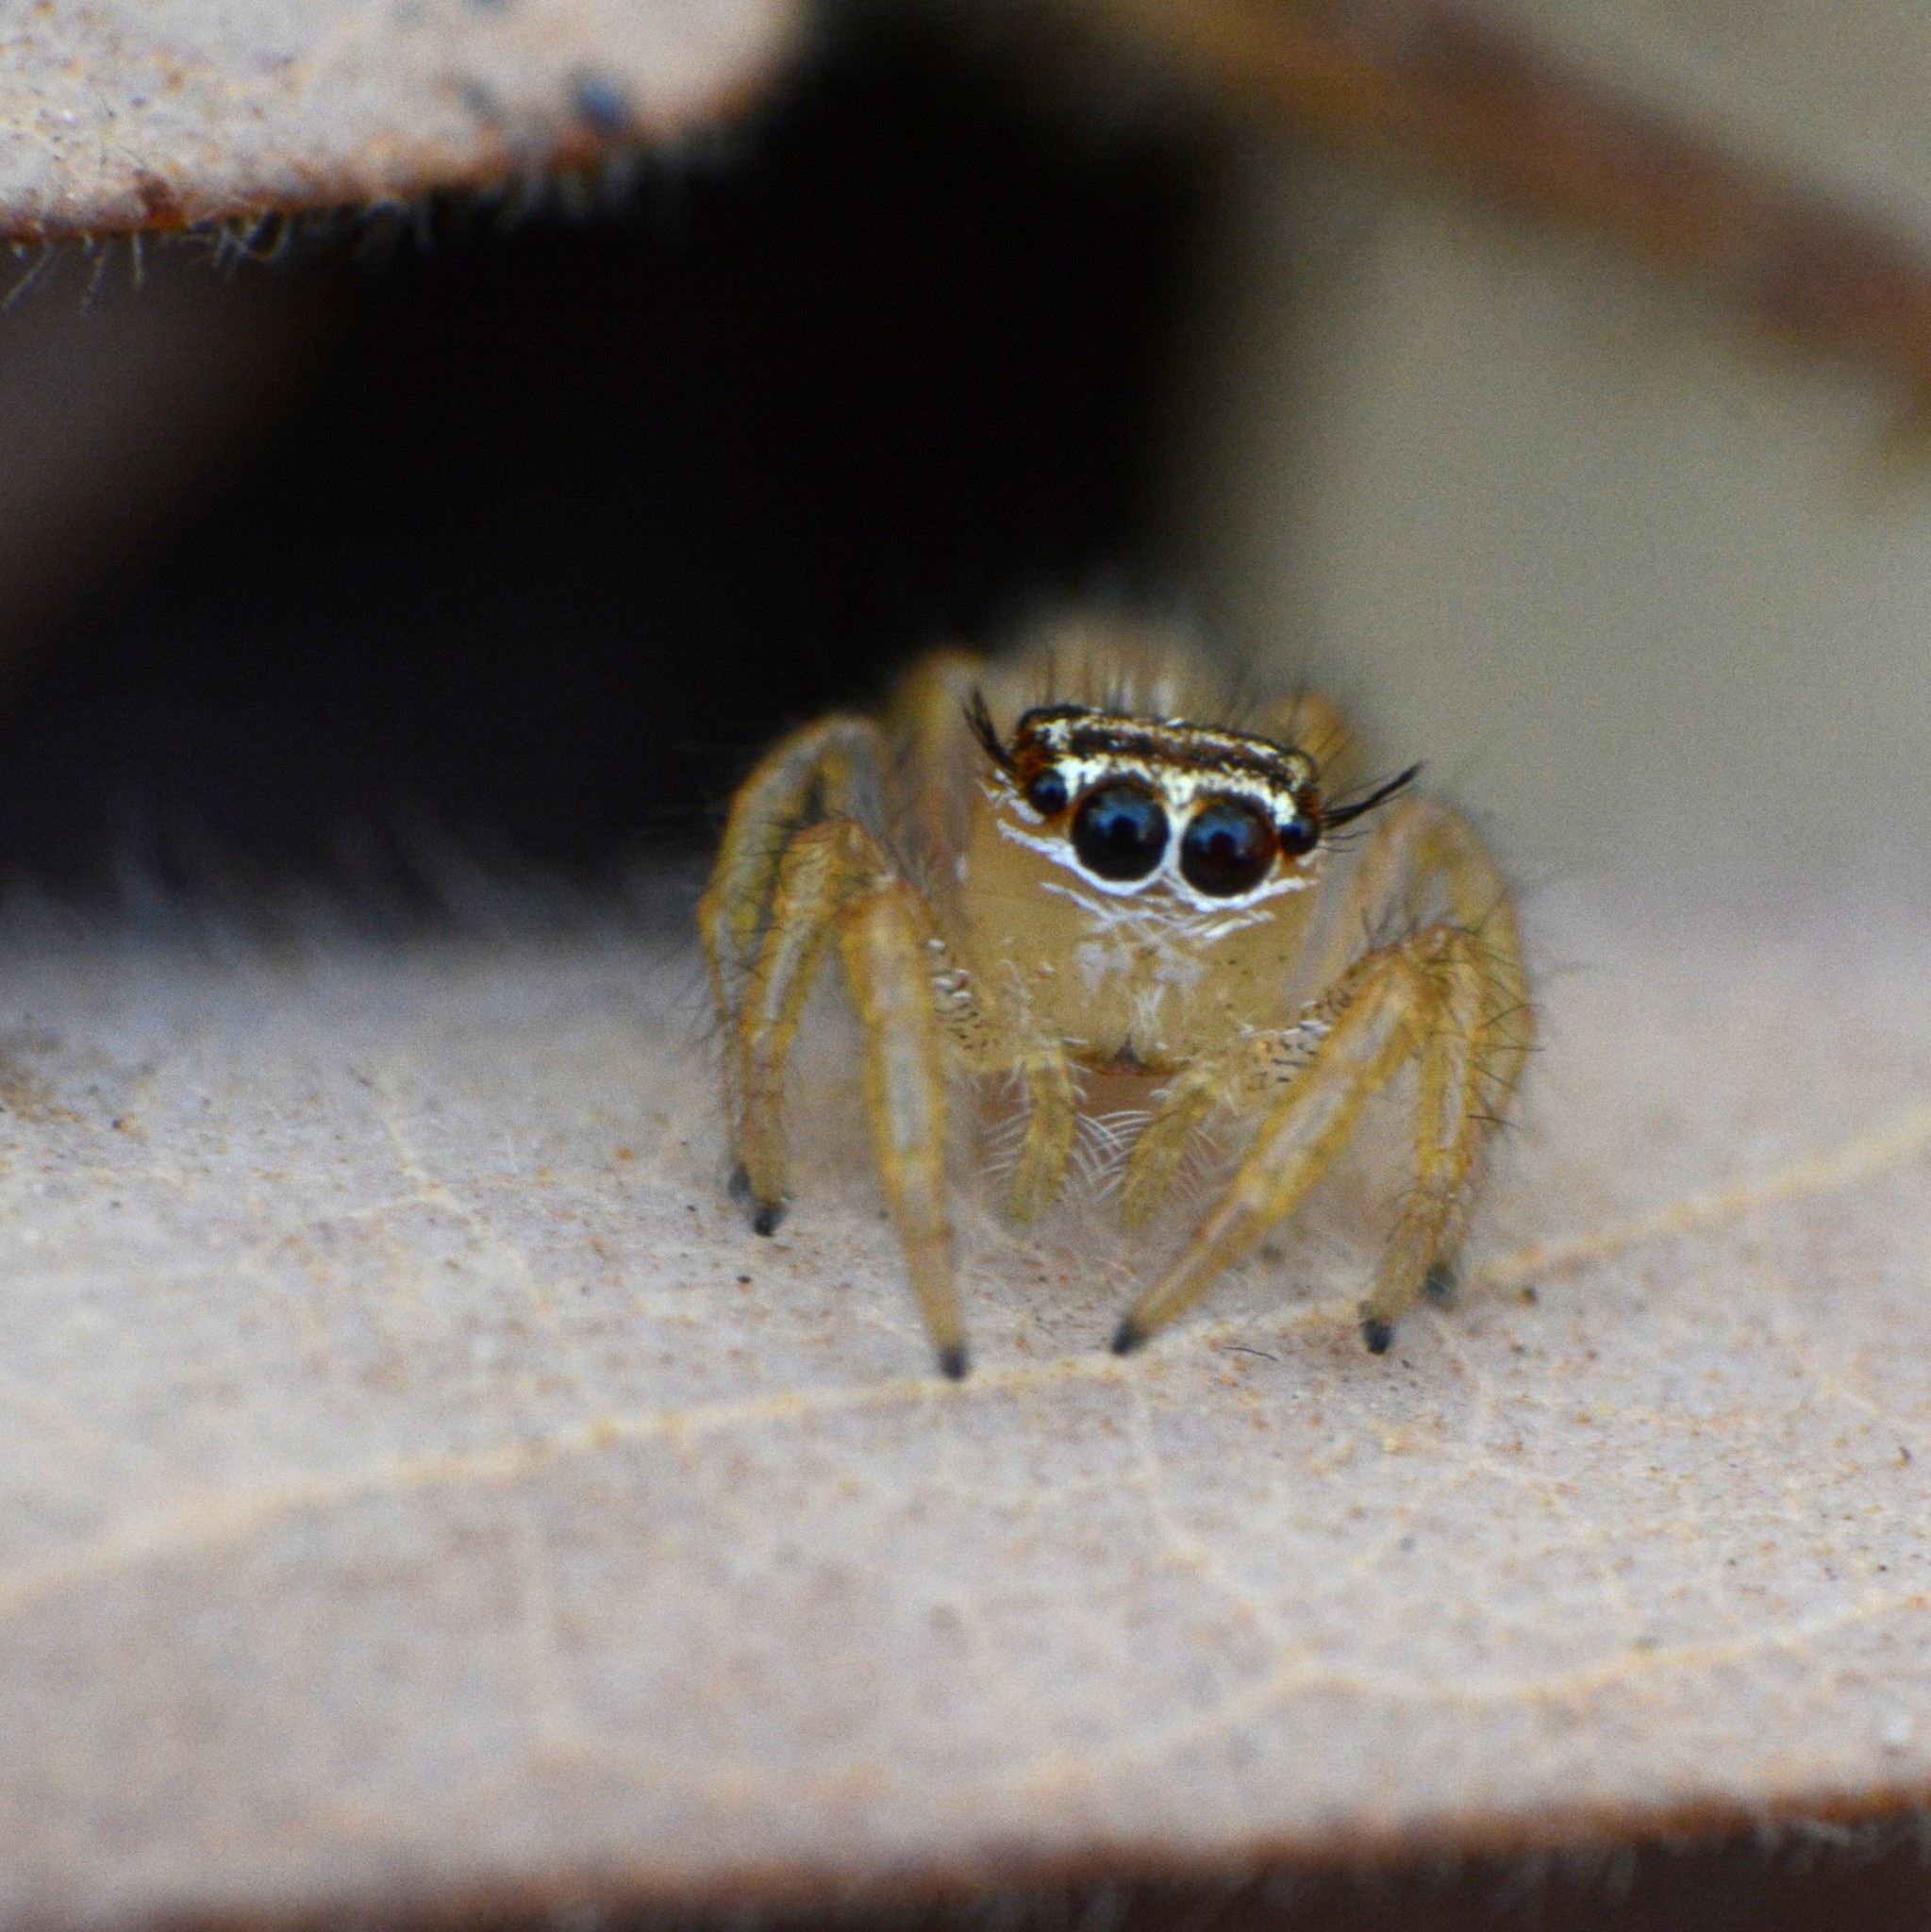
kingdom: Animalia
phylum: Arthropoda
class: Arachnida
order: Araneae
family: Salticidae
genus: Thyene
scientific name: Thyene inflata
